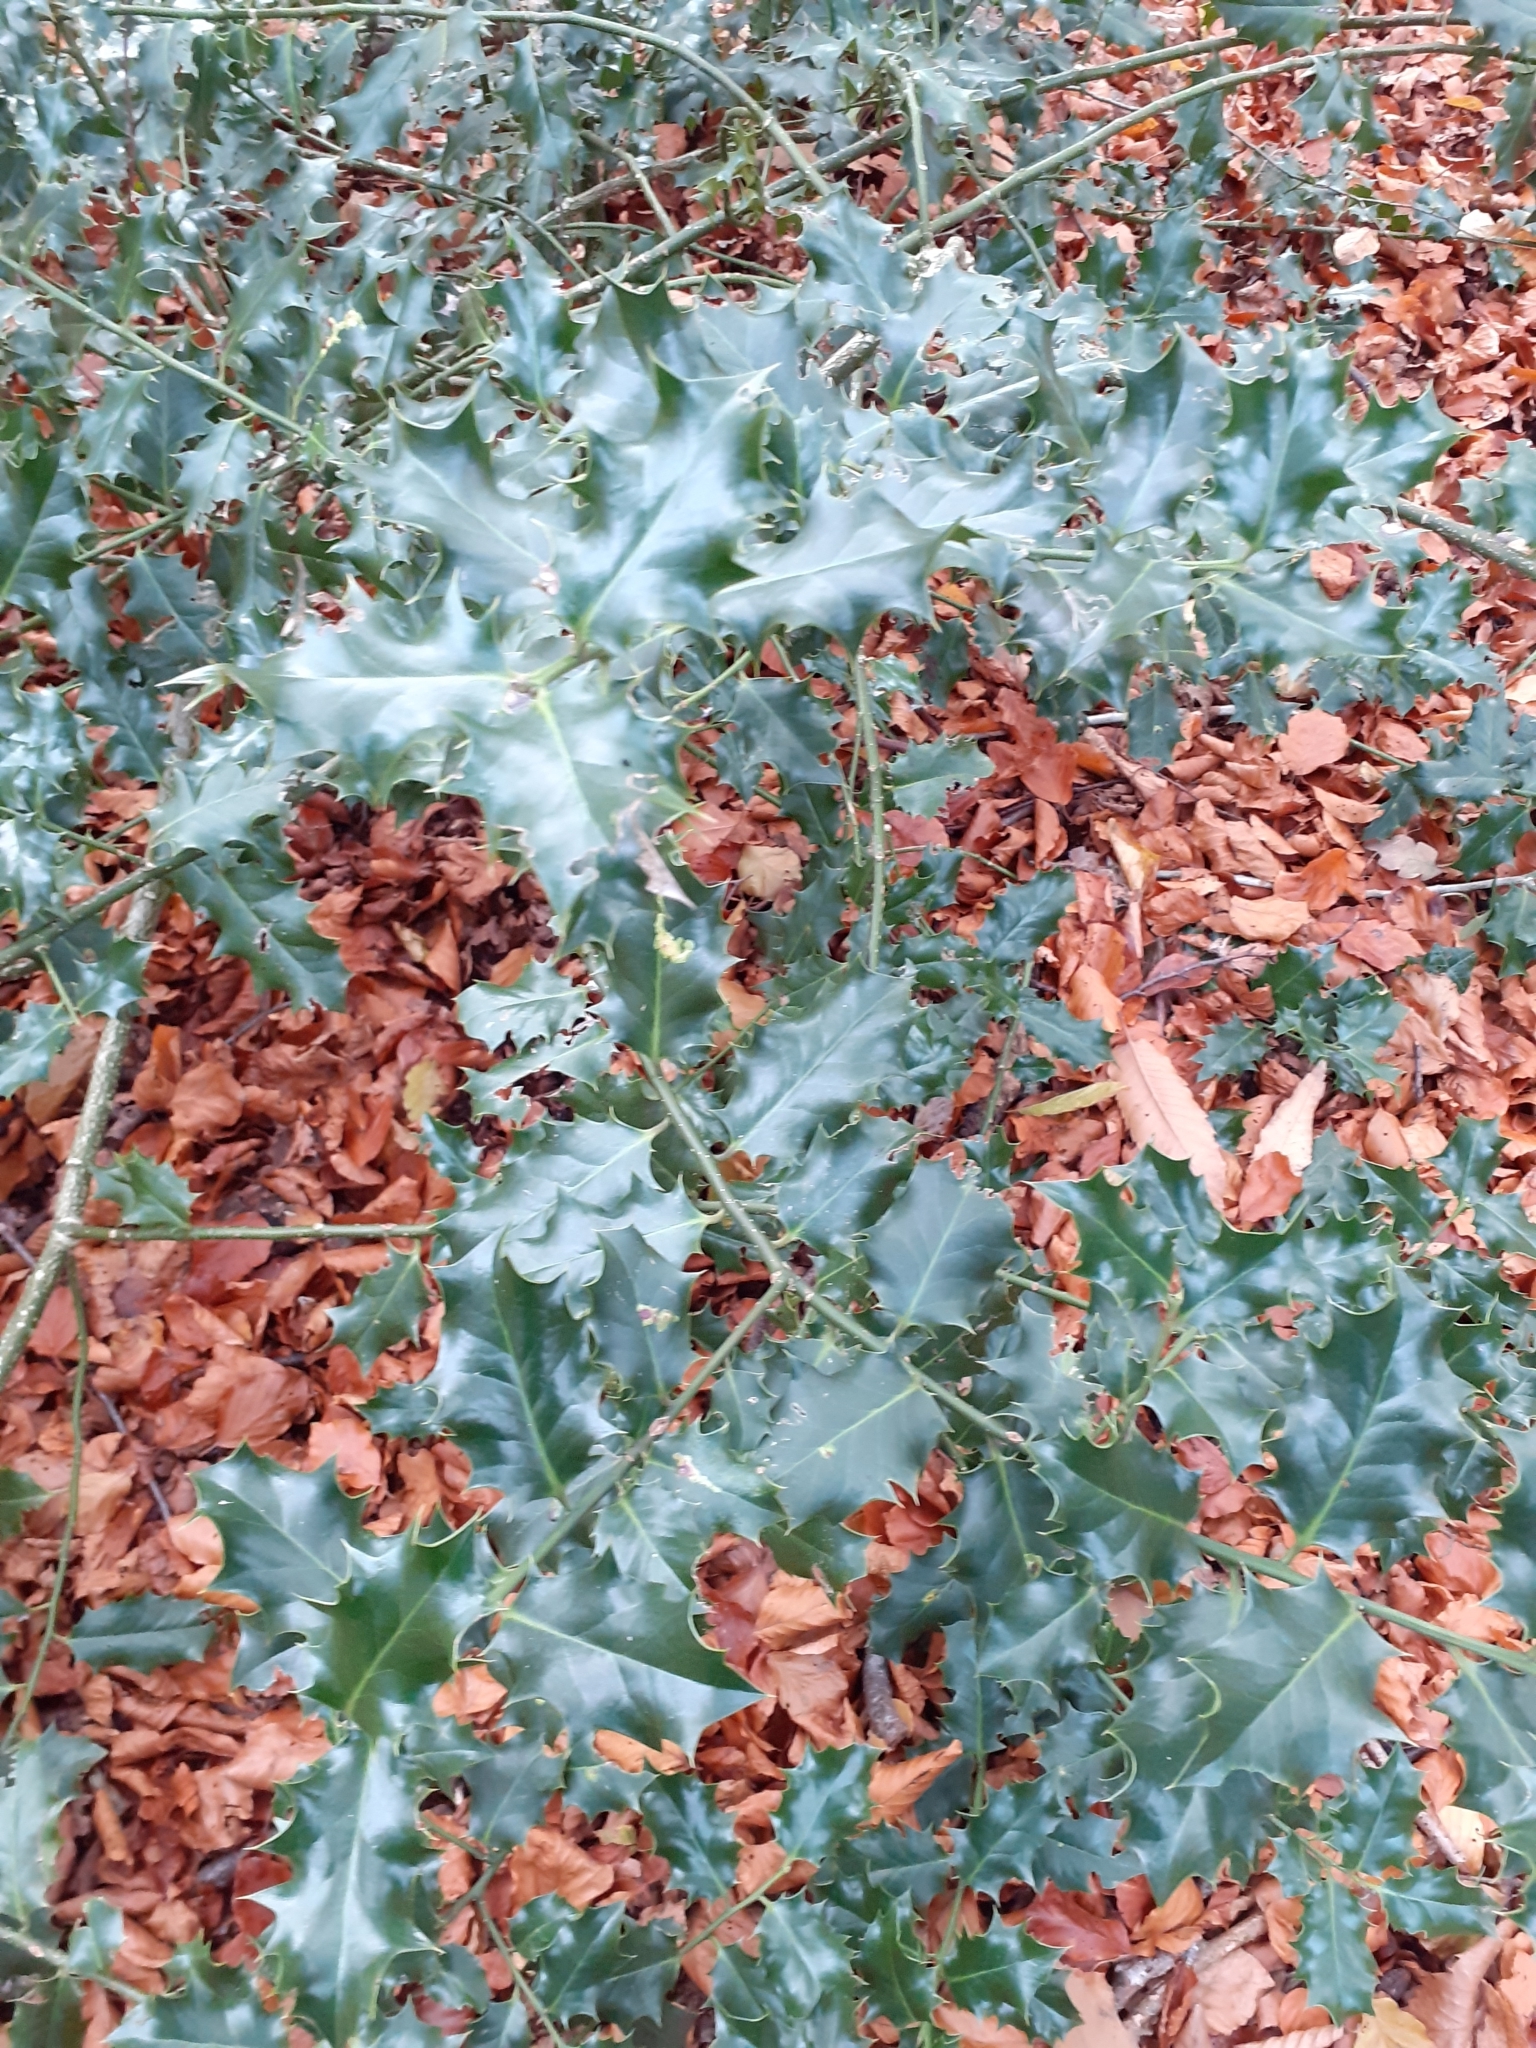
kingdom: Plantae
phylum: Tracheophyta
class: Magnoliopsida
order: Aquifoliales
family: Aquifoliaceae
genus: Ilex
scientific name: Ilex aquifolium
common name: English holly
